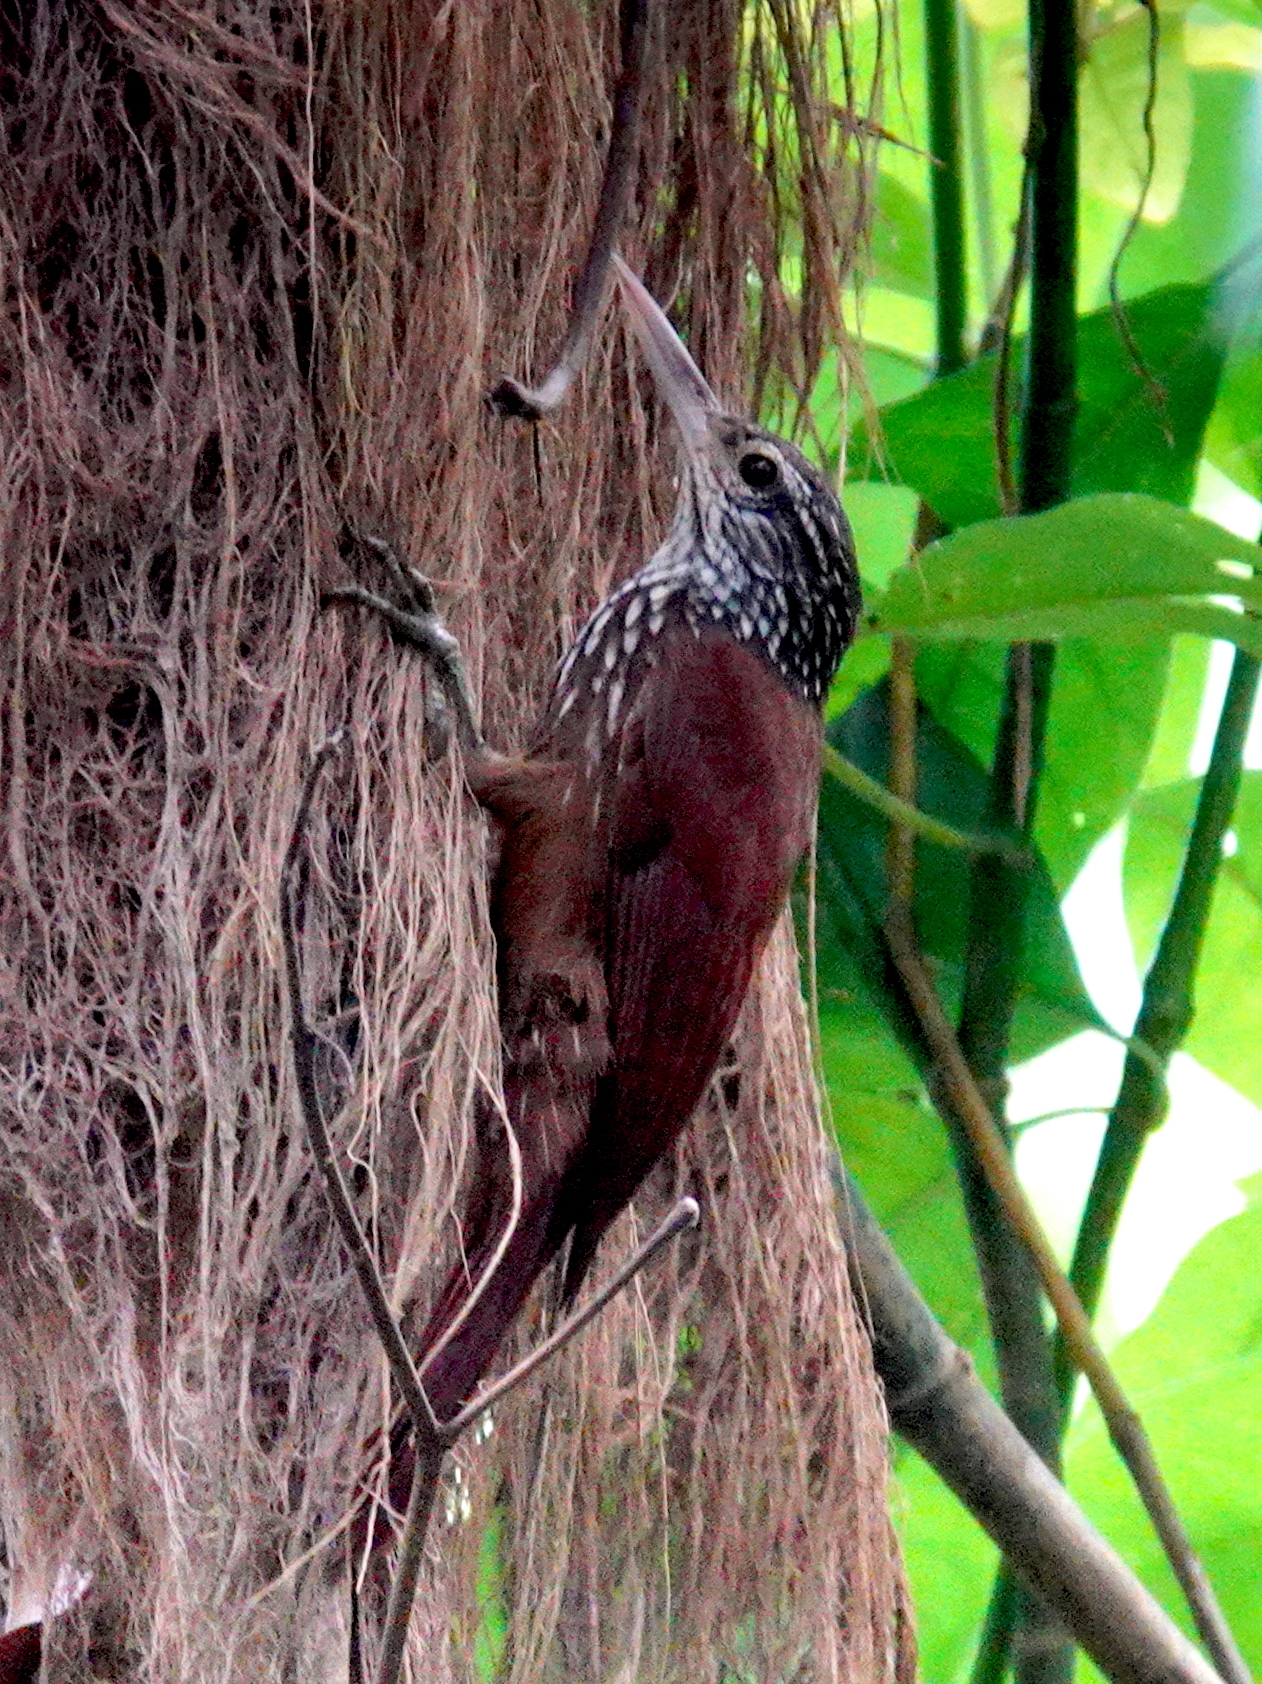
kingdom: Animalia
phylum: Chordata
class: Aves
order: Passeriformes
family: Furnariidae
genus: Xiphorhynchus
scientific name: Xiphorhynchus picus
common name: Straight-billed woodcreeper
